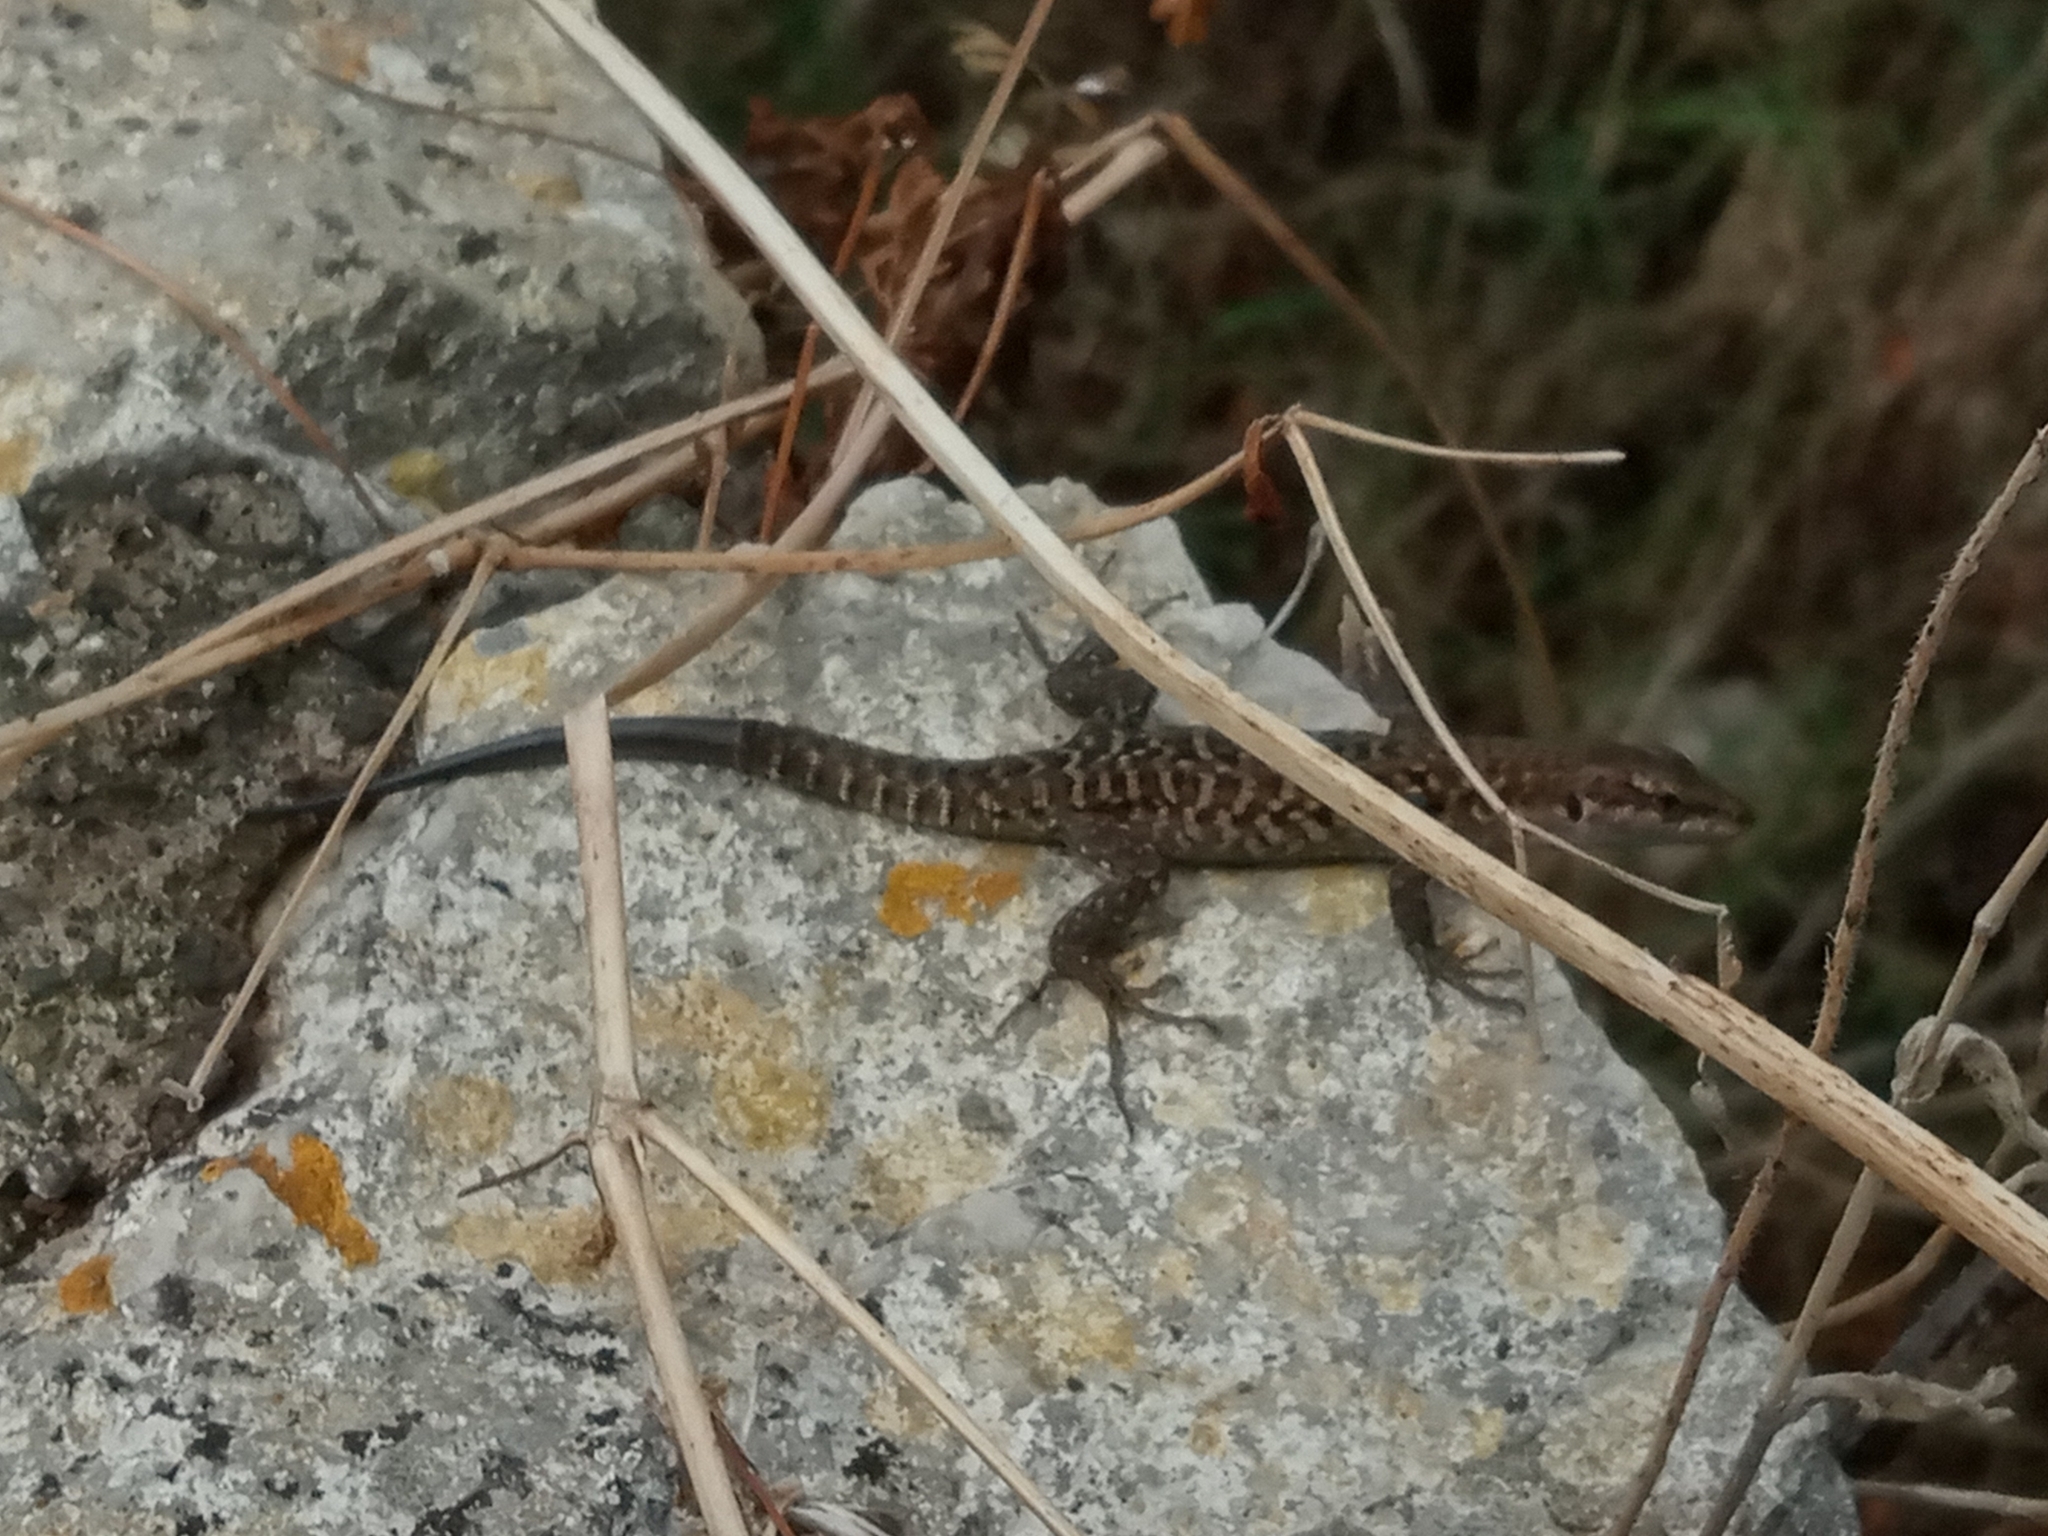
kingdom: Animalia
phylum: Chordata
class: Squamata
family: Lacertidae
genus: Podarcis
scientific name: Podarcis siculus
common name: Italian wall lizard
